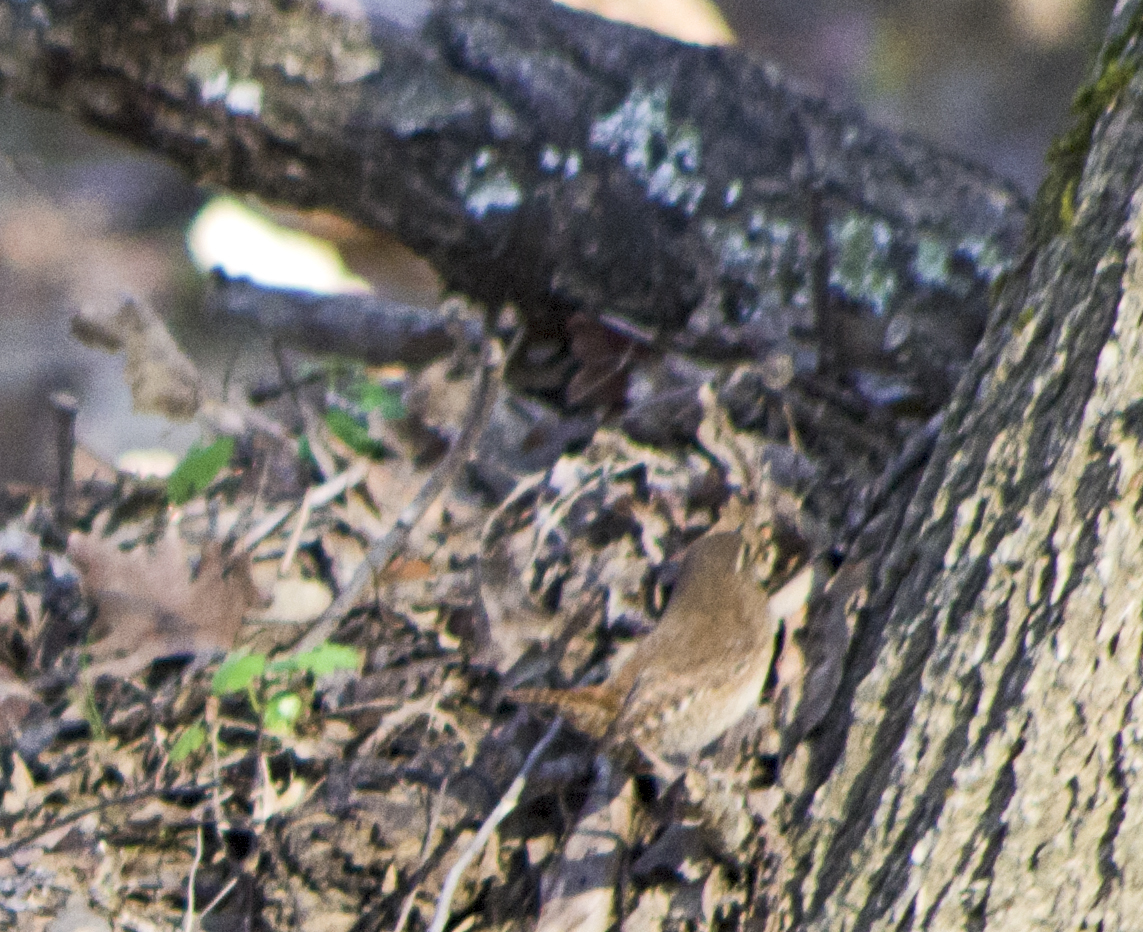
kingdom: Animalia
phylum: Chordata
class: Aves
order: Passeriformes
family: Troglodytidae
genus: Troglodytes
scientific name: Troglodytes troglodytes
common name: Eurasian wren
